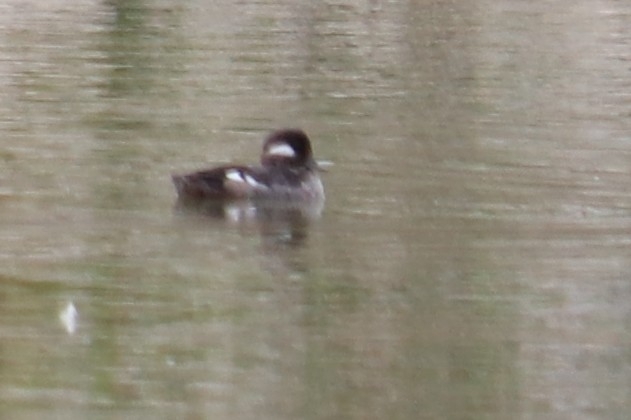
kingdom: Animalia
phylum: Chordata
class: Aves
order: Anseriformes
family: Anatidae
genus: Bucephala
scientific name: Bucephala albeola
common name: Bufflehead
